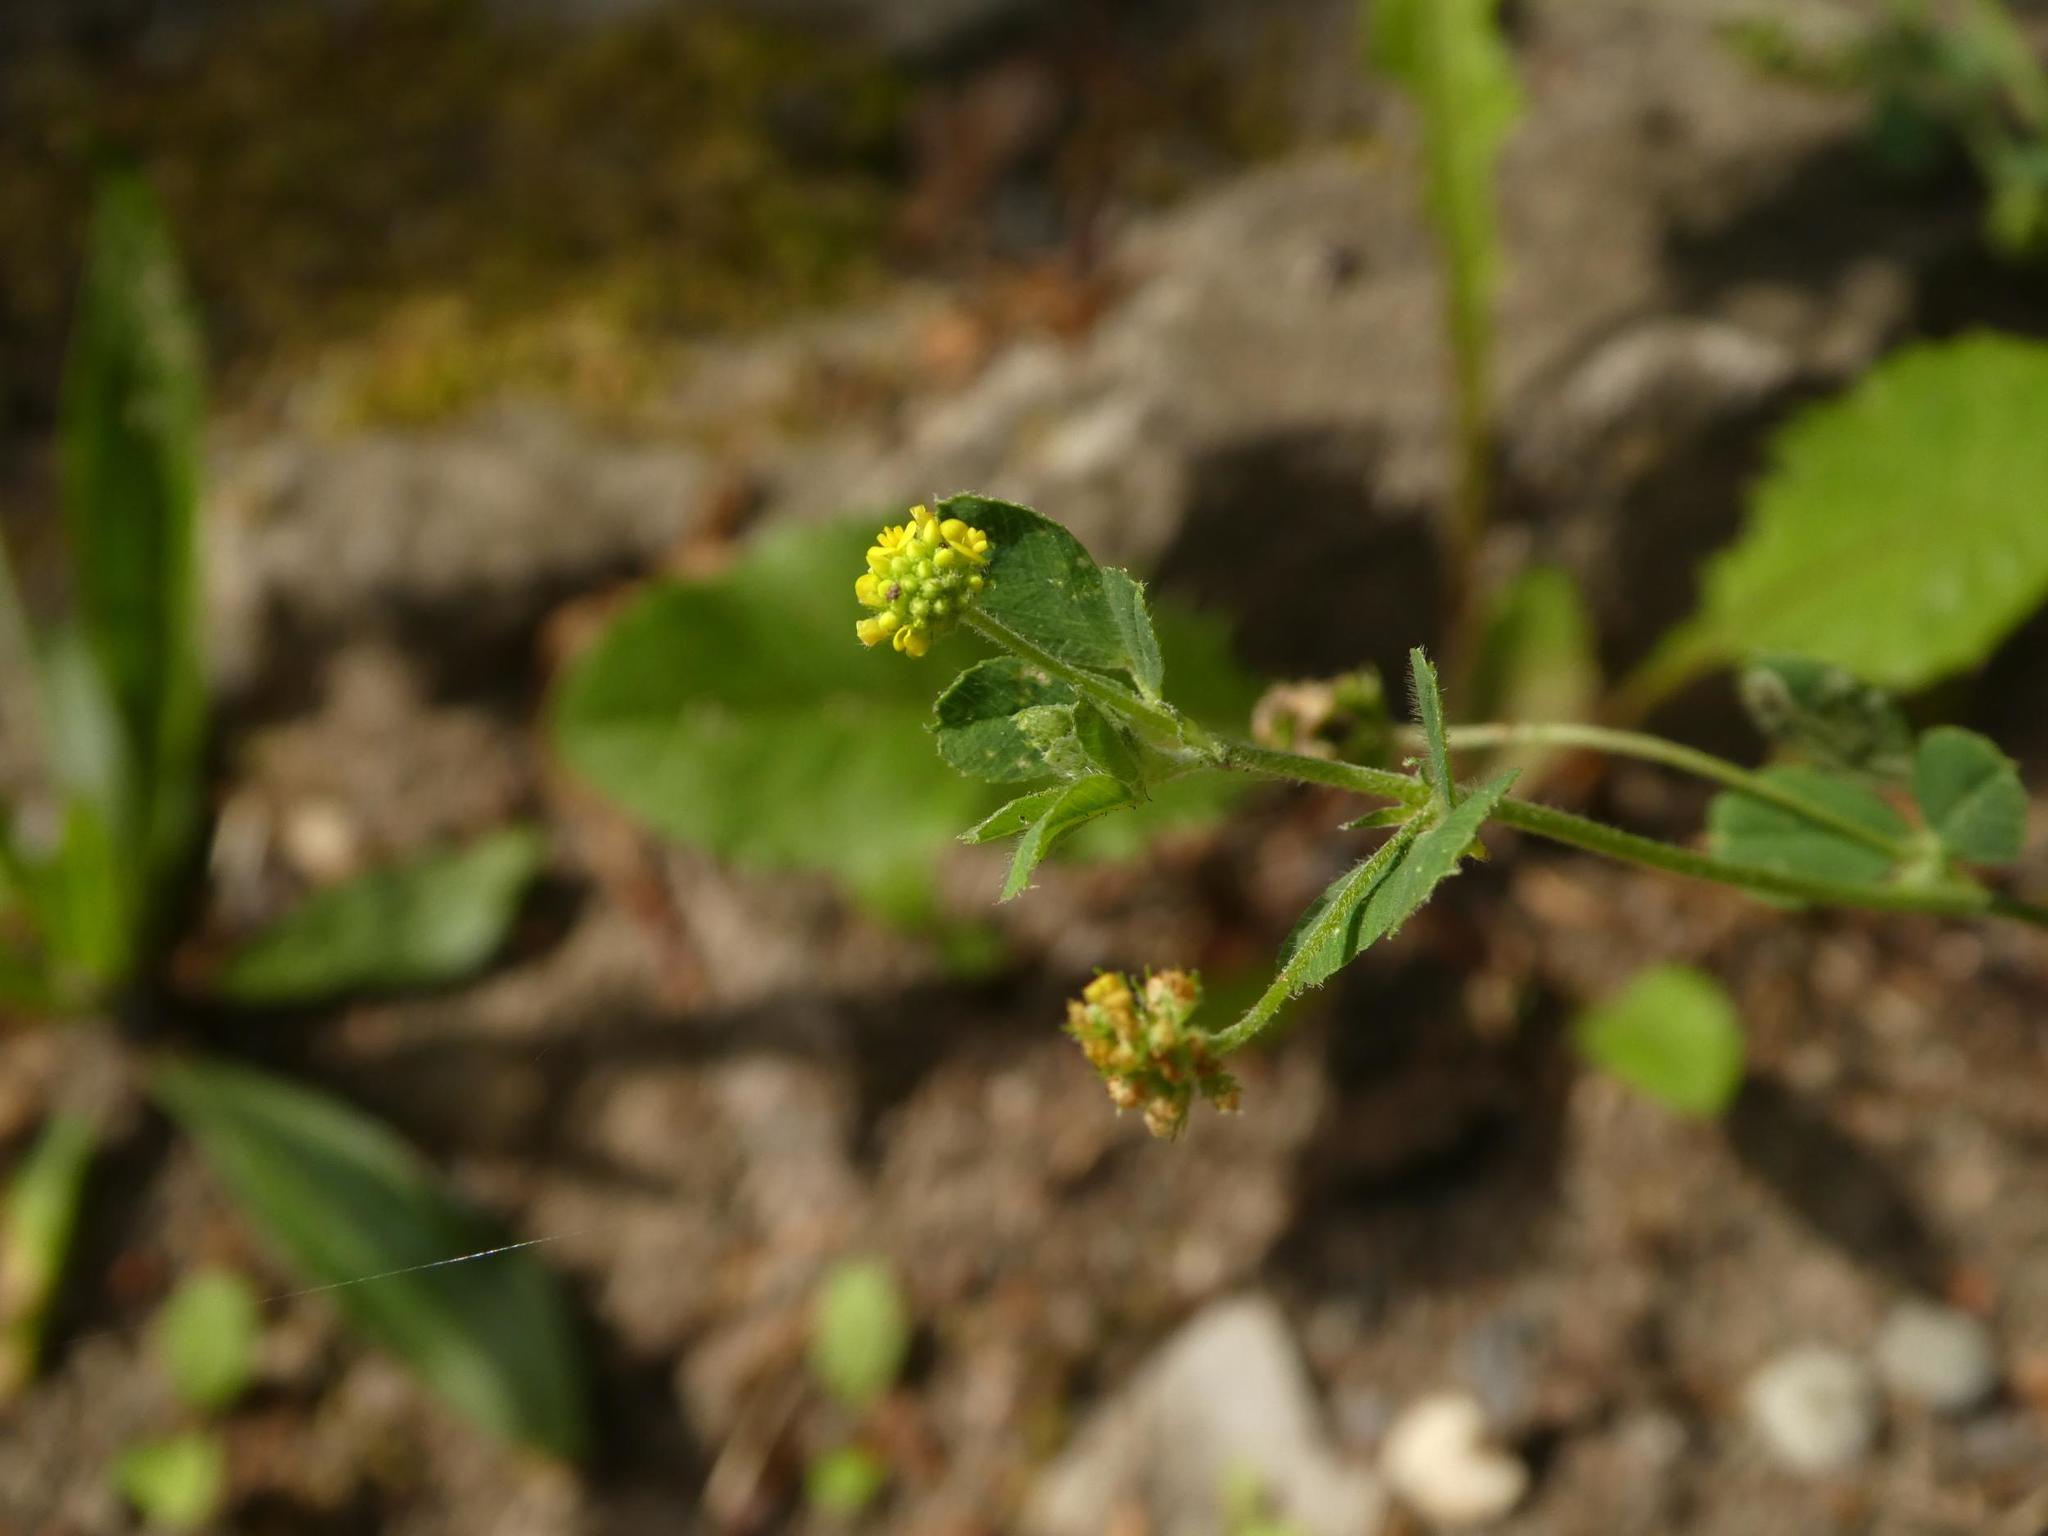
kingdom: Plantae
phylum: Tracheophyta
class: Magnoliopsida
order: Fabales
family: Fabaceae
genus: Medicago
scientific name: Medicago lupulina
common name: Black medick
